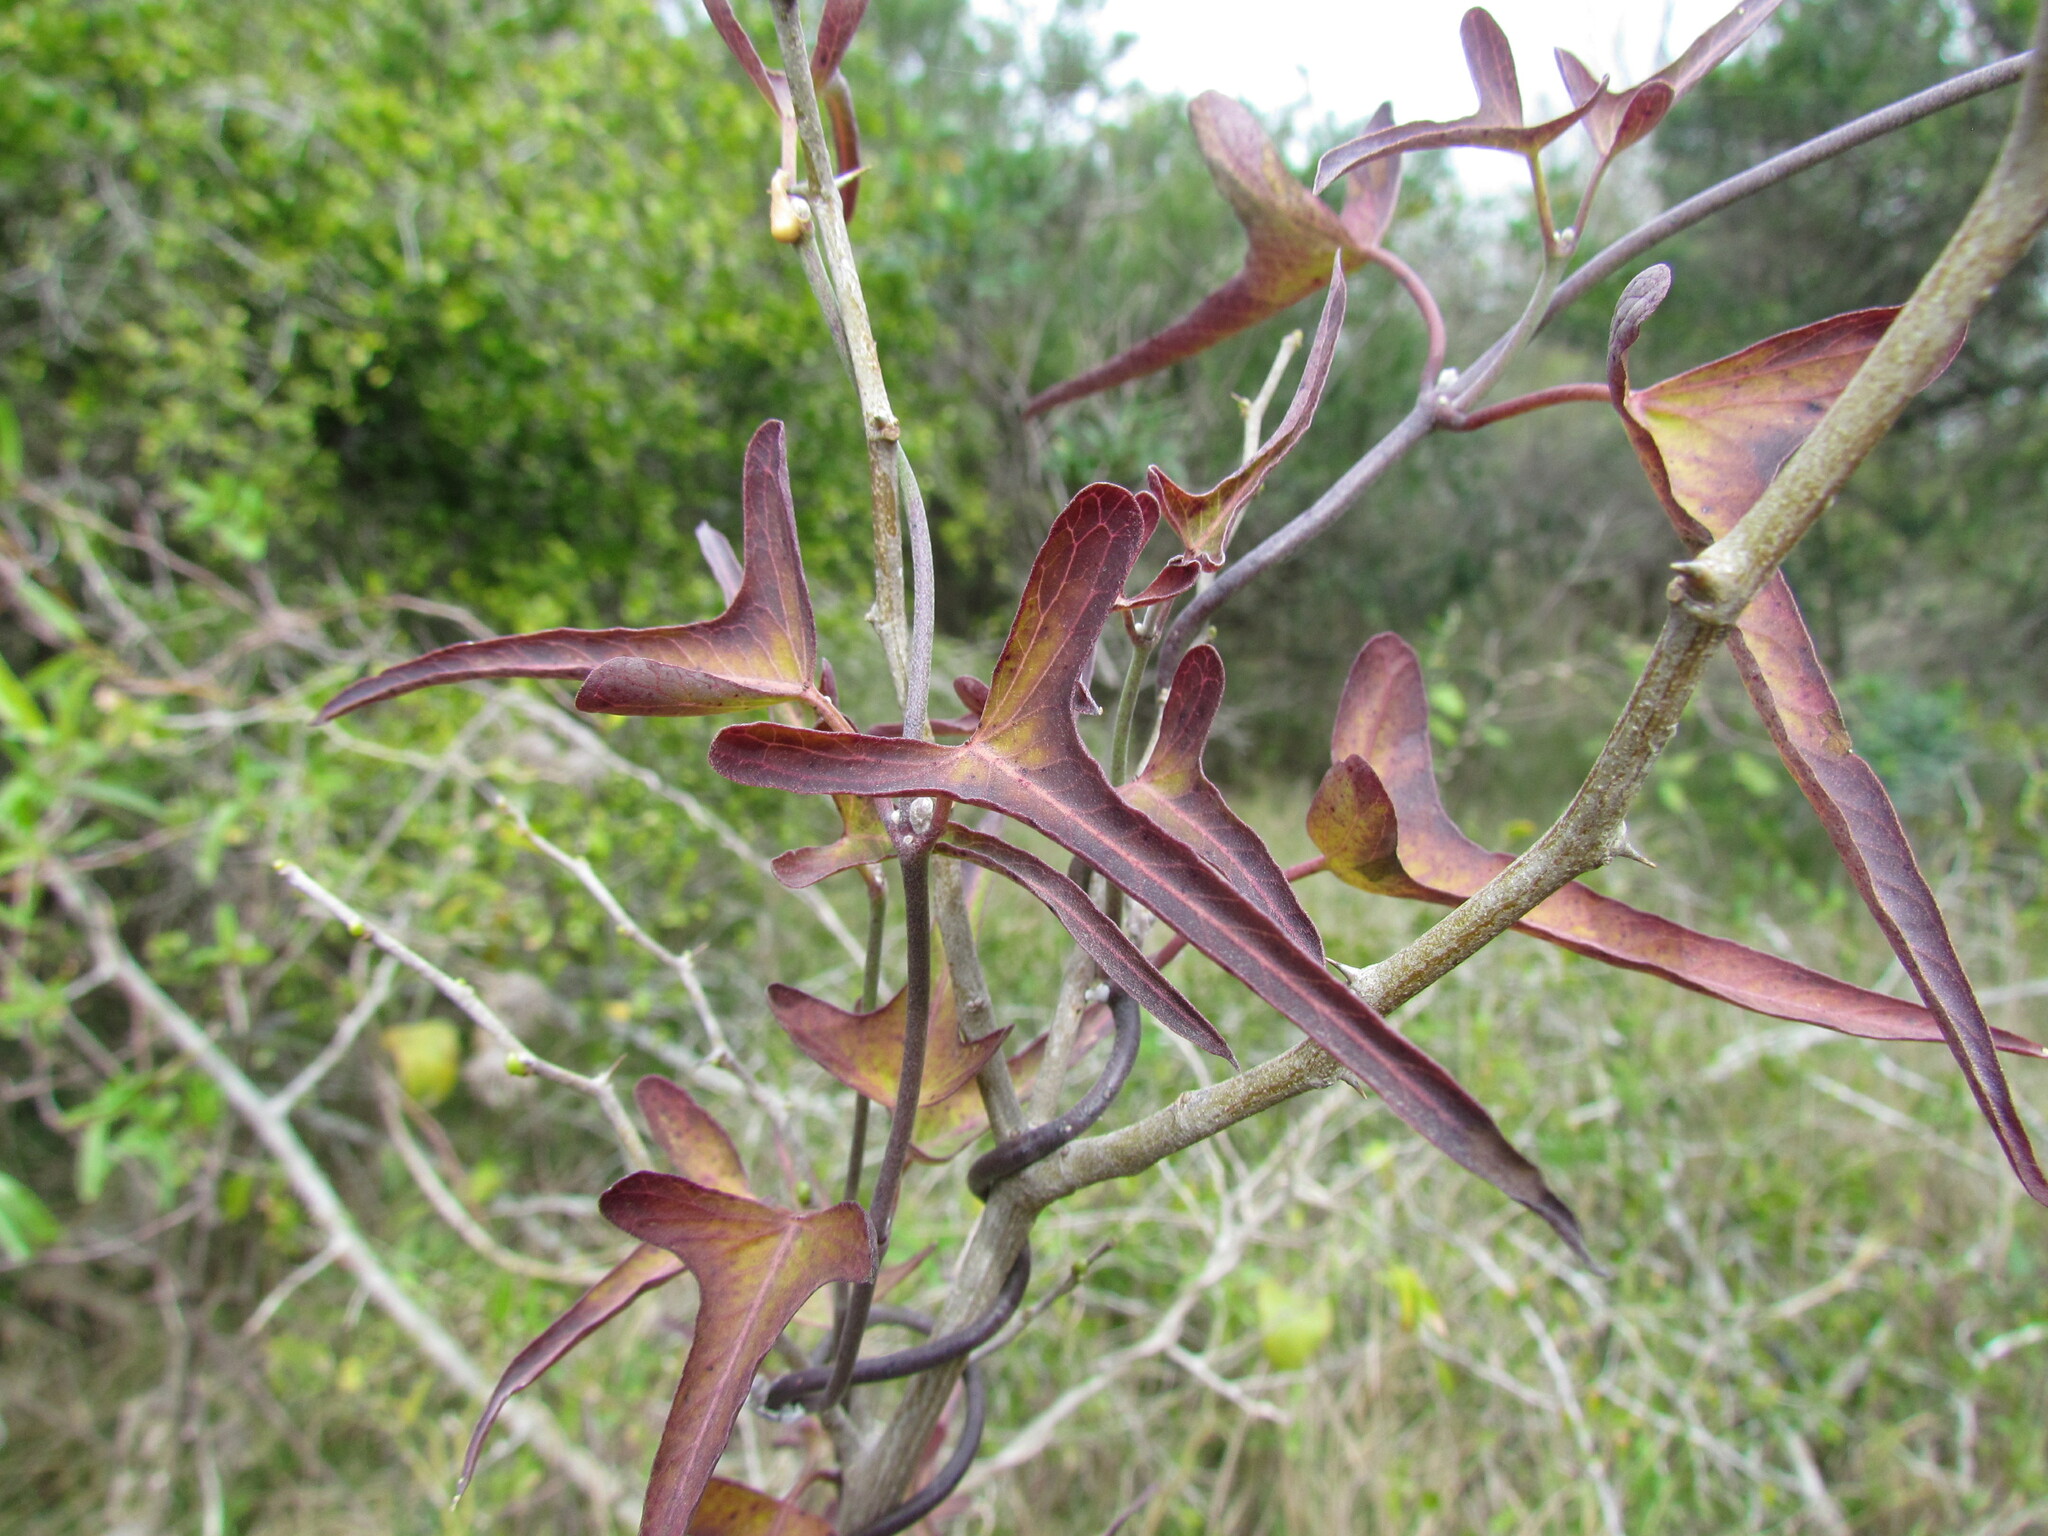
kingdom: Plantae
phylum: Tracheophyta
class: Magnoliopsida
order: Gentianales
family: Apocynaceae
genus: Araujia
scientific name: Araujia angustifolia
